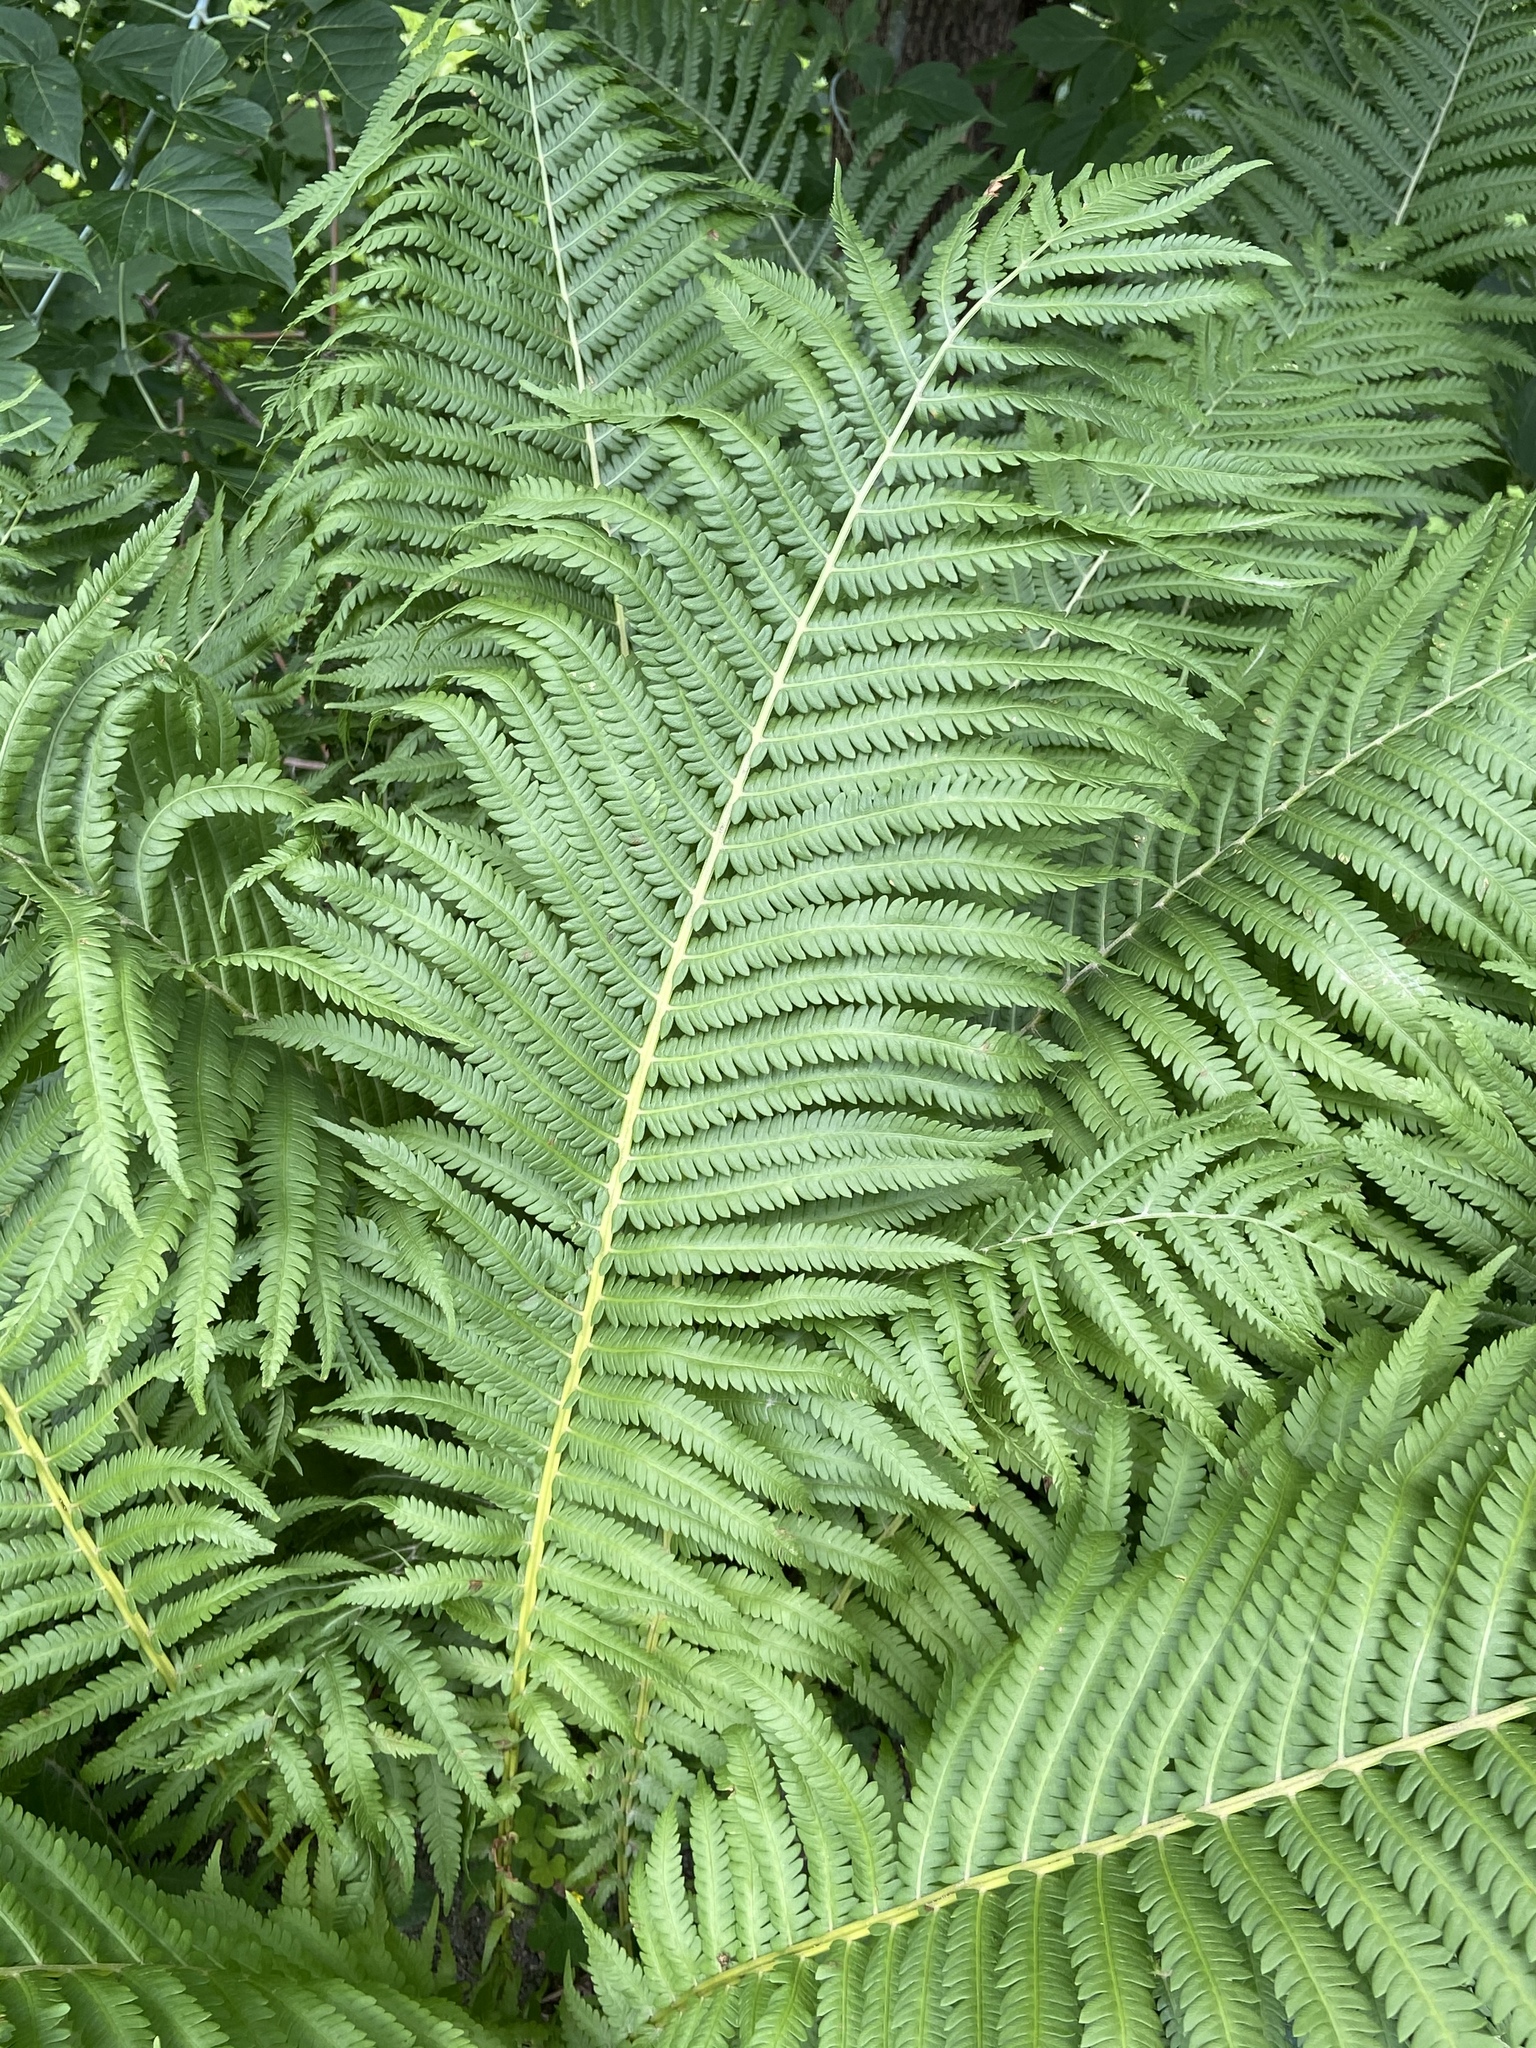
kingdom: Plantae
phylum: Tracheophyta
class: Polypodiopsida
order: Polypodiales
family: Onocleaceae
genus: Matteuccia
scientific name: Matteuccia struthiopteris
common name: Ostrich fern
